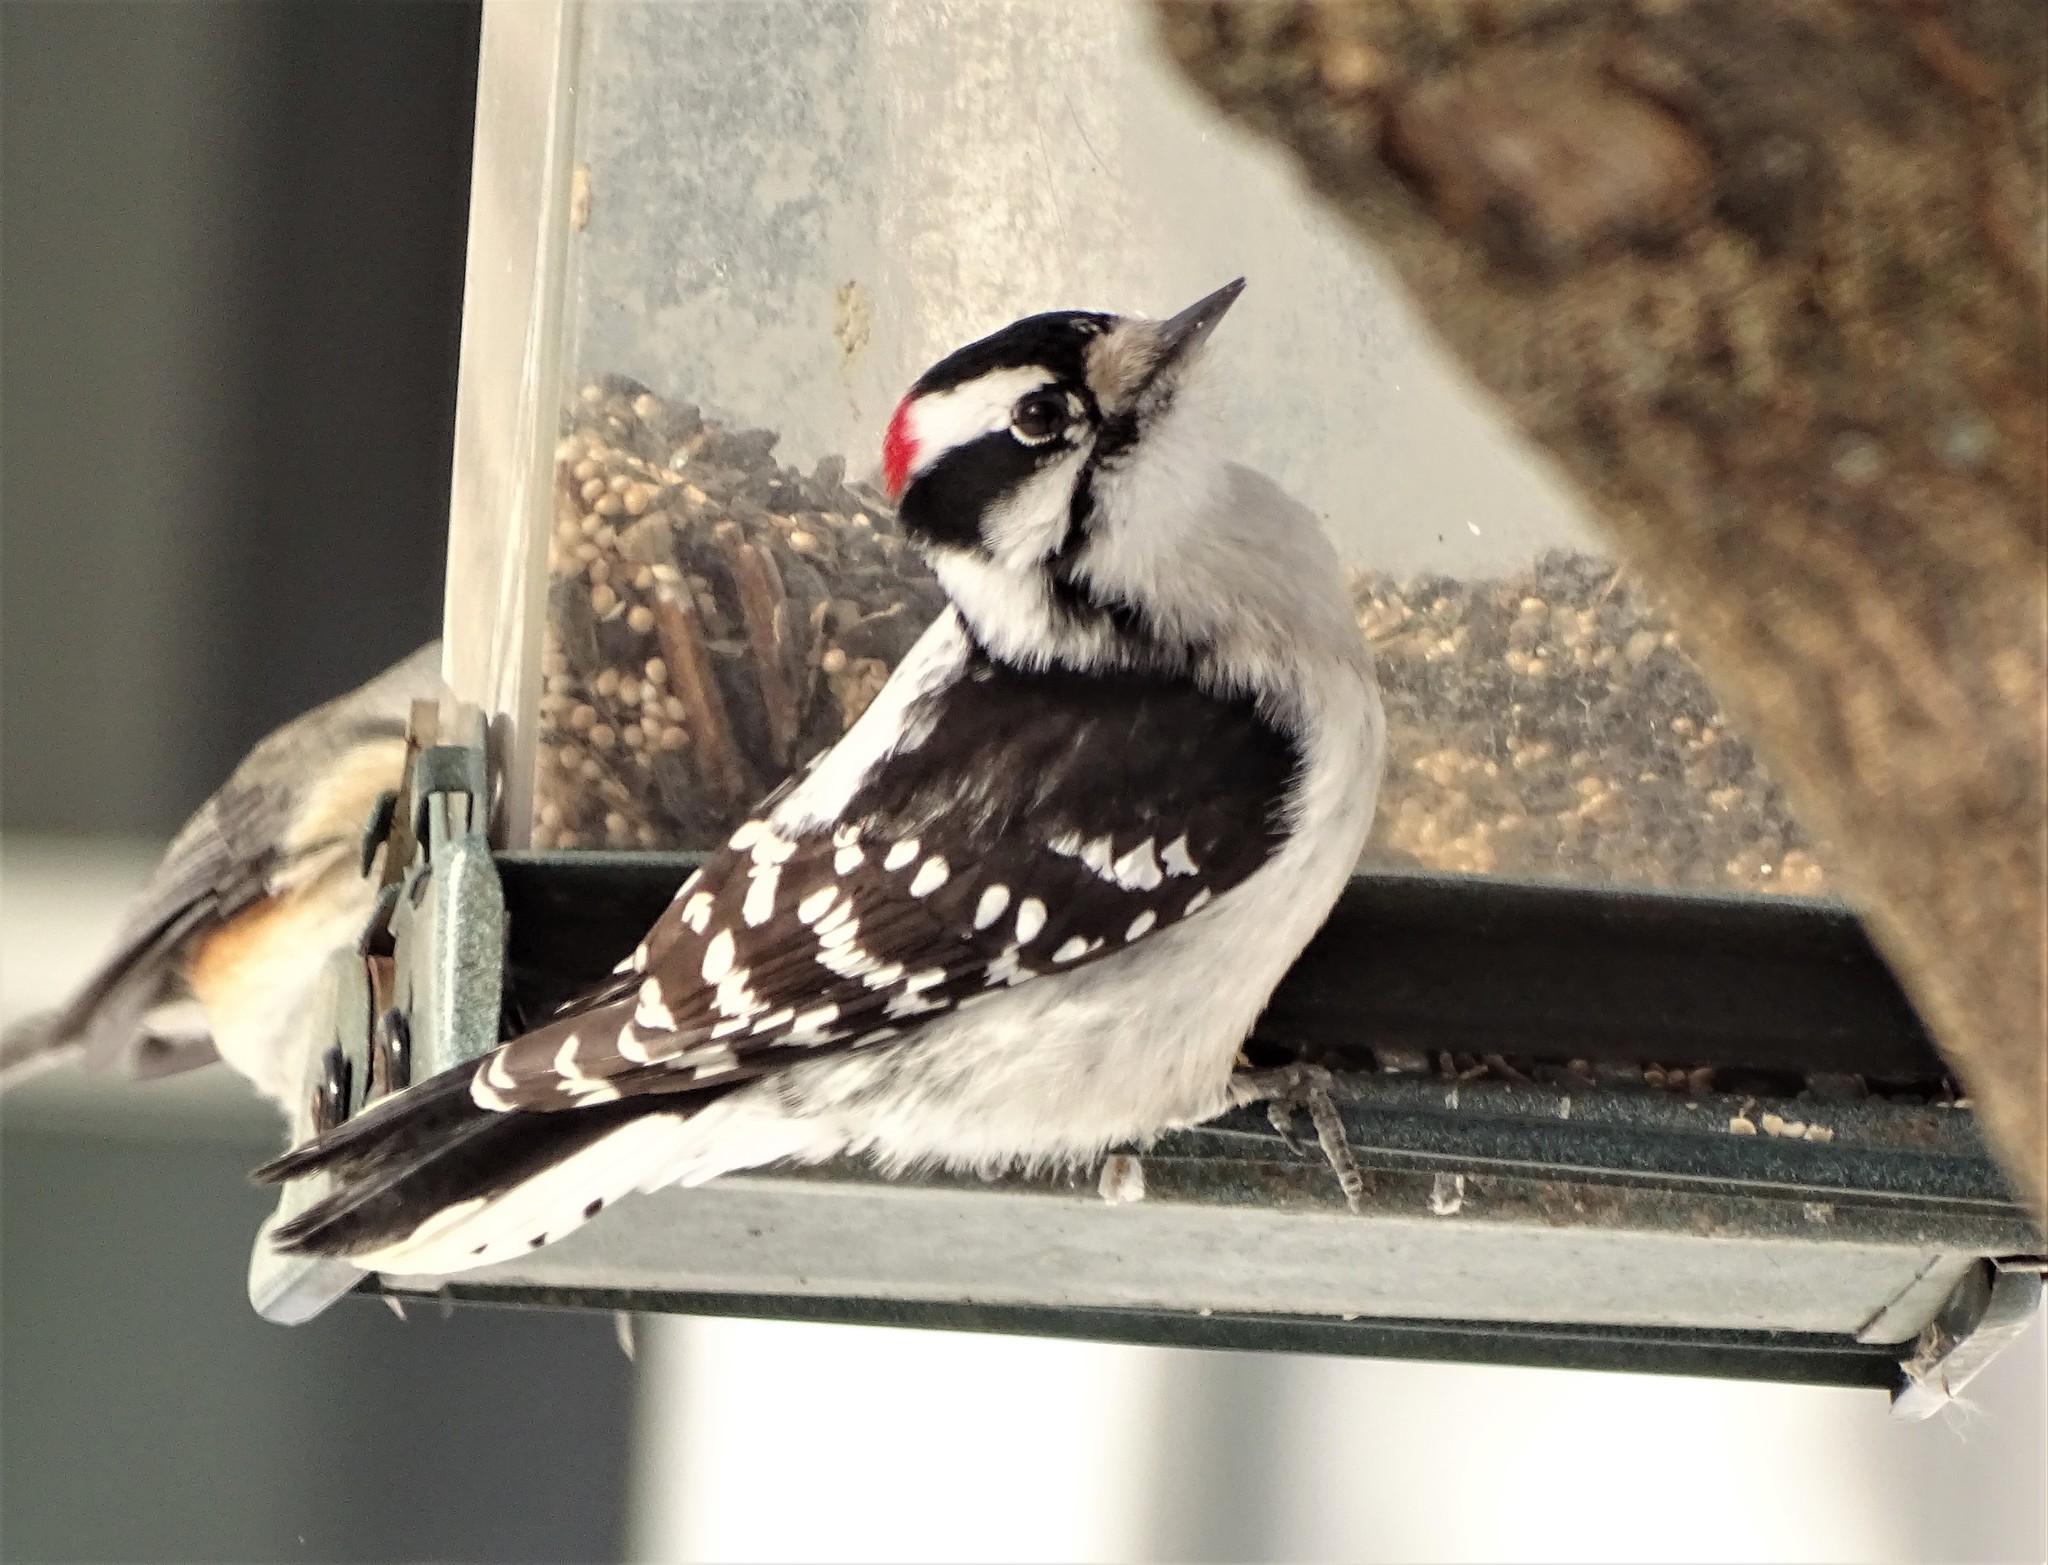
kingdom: Animalia
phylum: Chordata
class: Aves
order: Piciformes
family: Picidae
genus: Dryobates
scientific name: Dryobates pubescens
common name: Downy woodpecker
